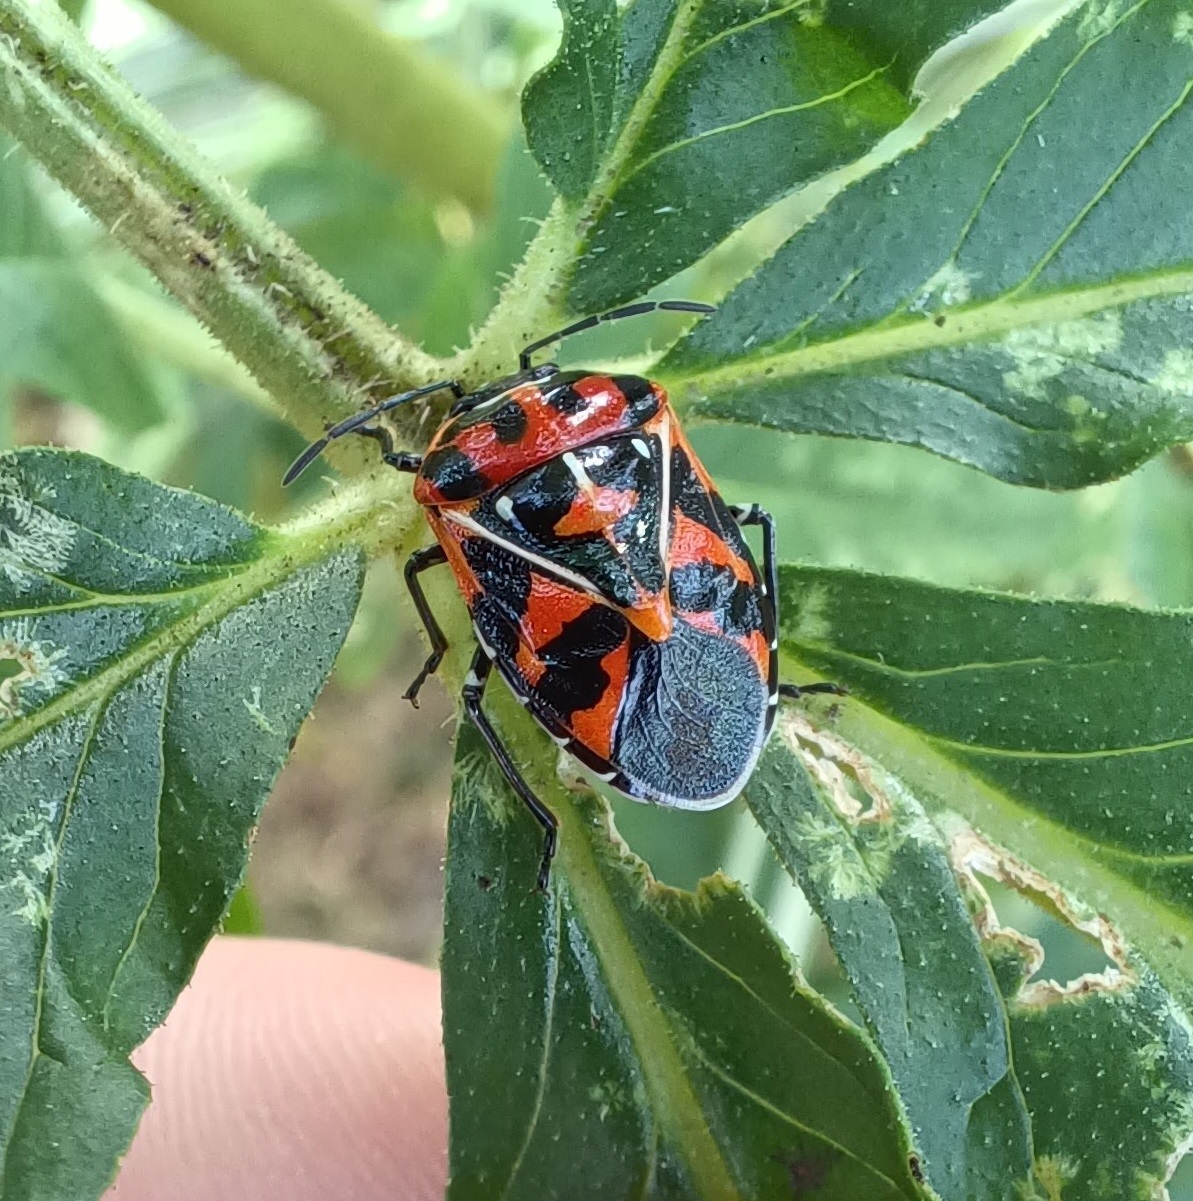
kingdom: Animalia
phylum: Arthropoda
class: Insecta
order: Hemiptera
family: Pentatomidae
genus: Murgantia
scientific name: Murgantia histrionica
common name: Harlequin bug
